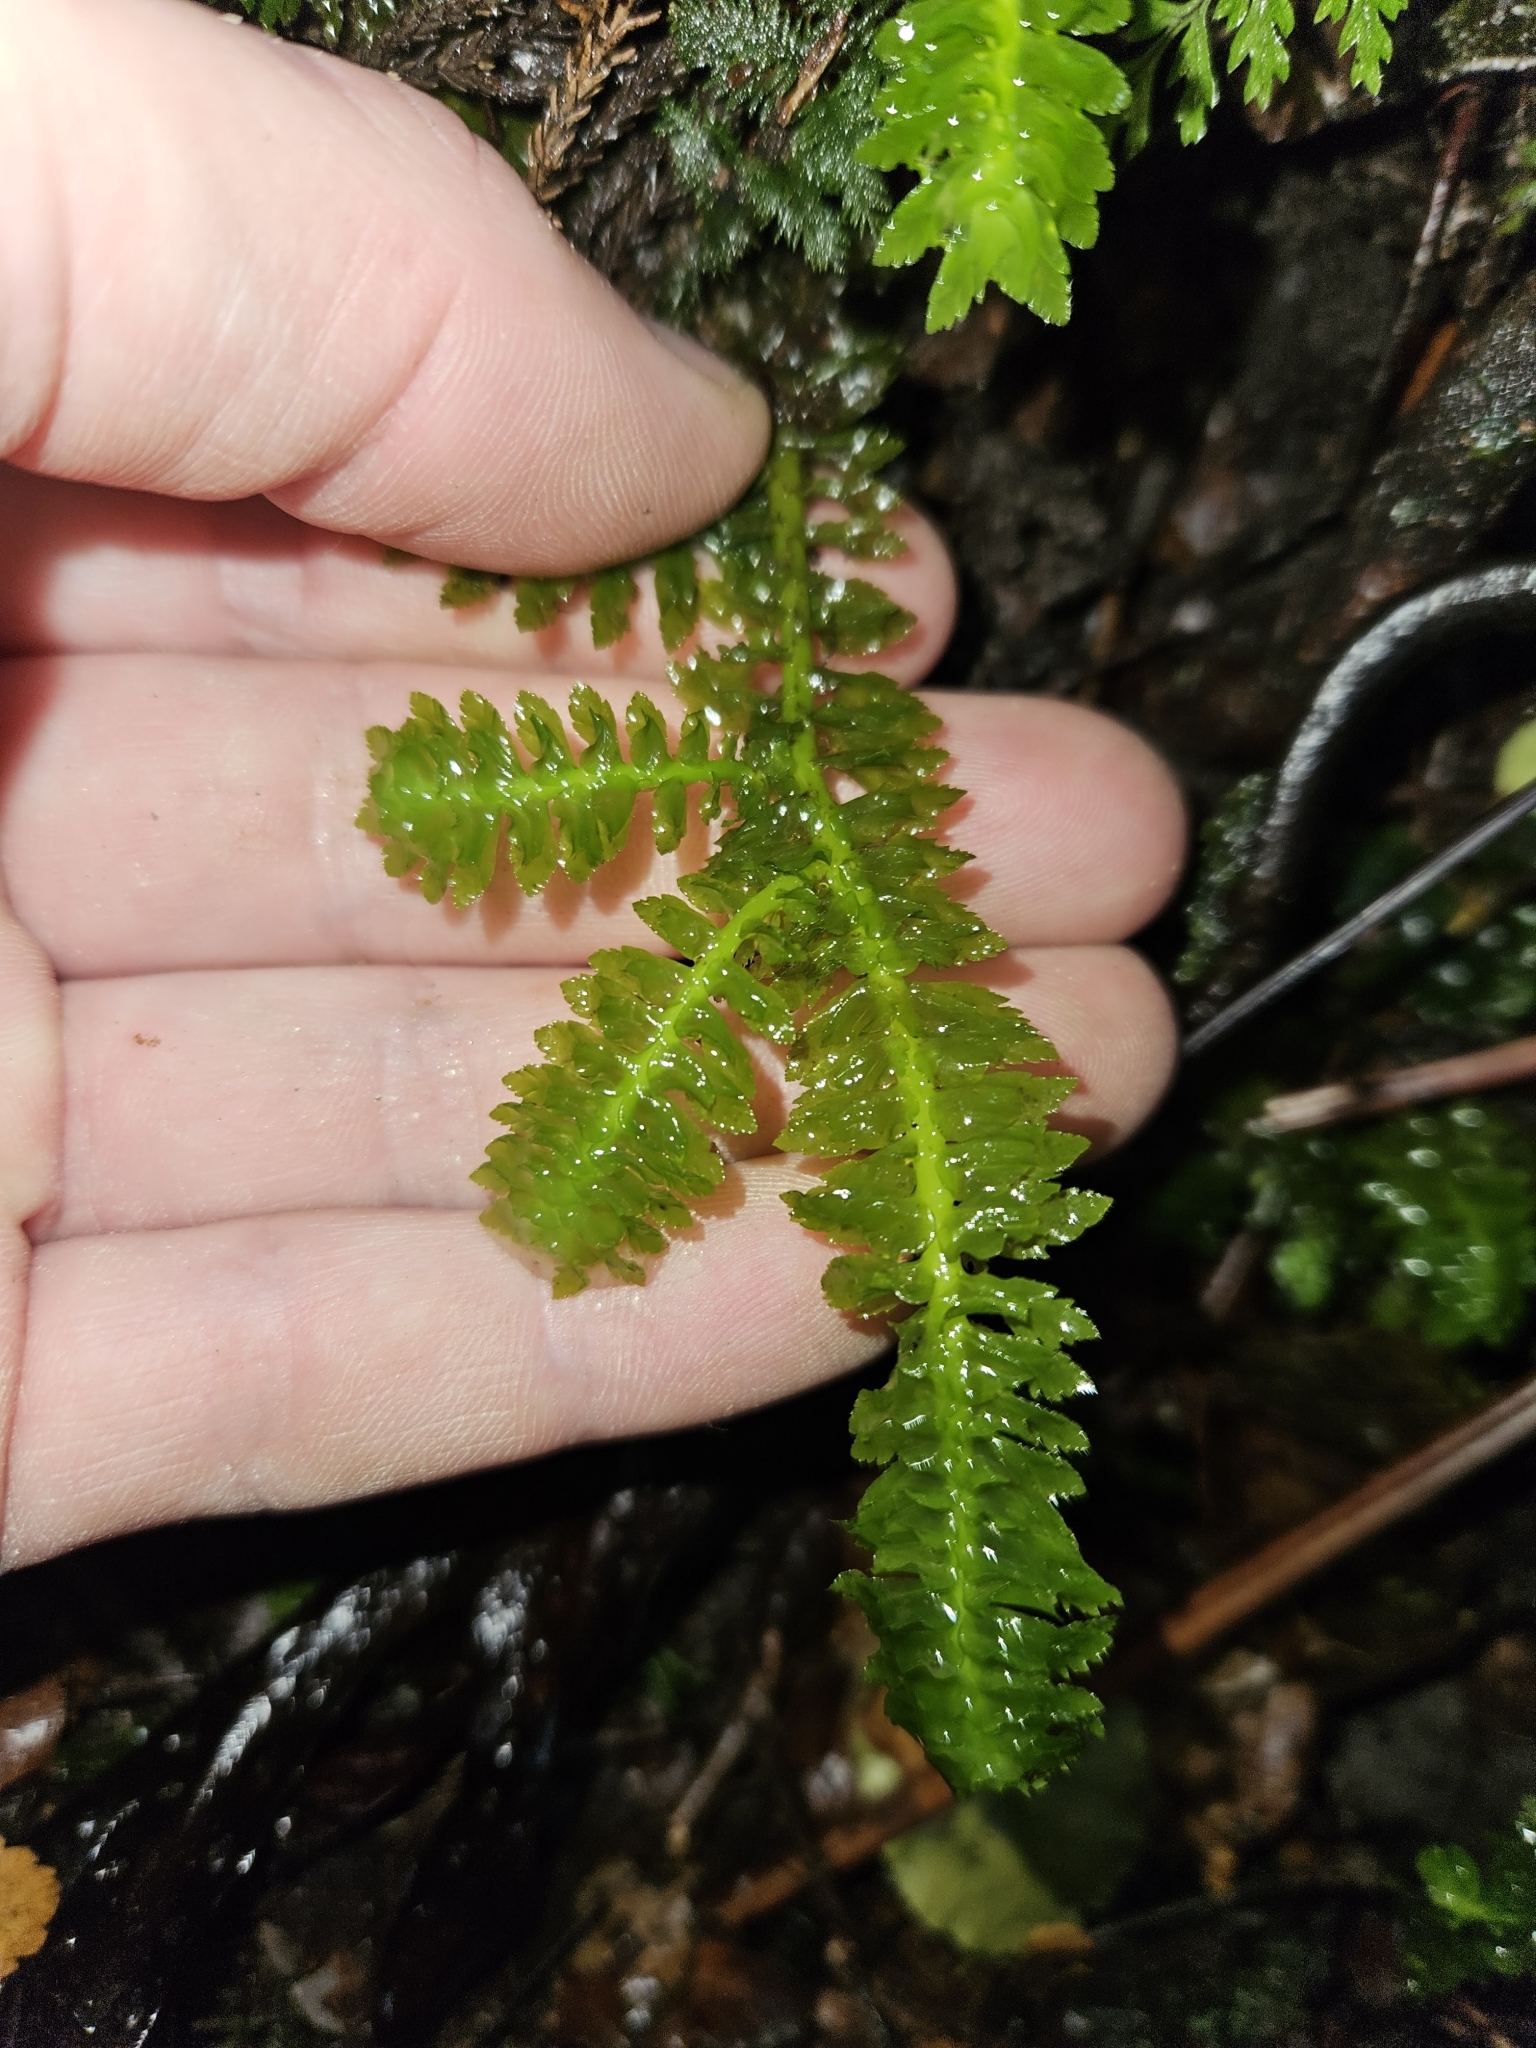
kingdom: Plantae
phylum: Marchantiophyta
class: Jungermanniopsida
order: Jungermanniales
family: Schistochilaceae
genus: Schistochila
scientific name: Schistochila appendiculata
